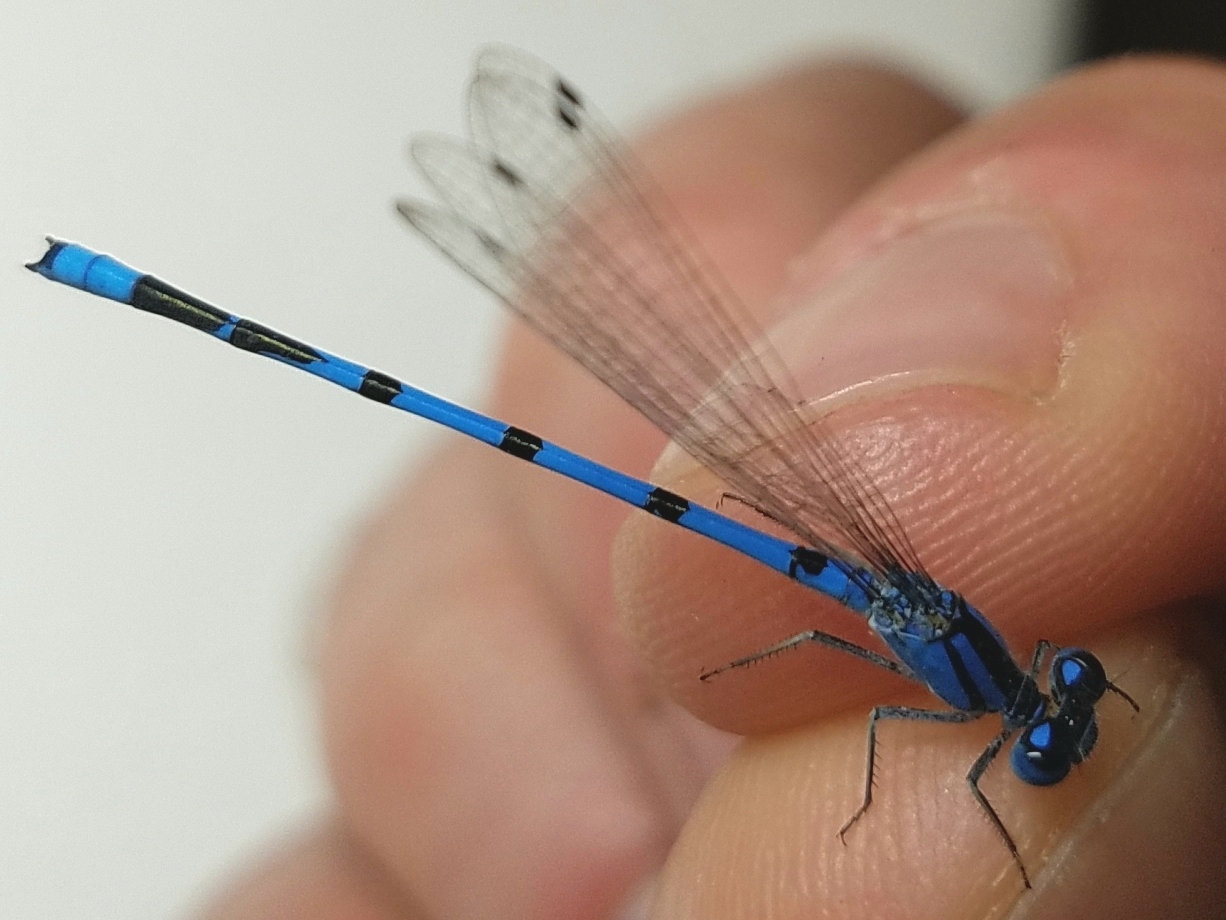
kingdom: Animalia
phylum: Arthropoda
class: Insecta
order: Odonata
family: Coenagrionidae
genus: Enallagma
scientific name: Enallagma civile
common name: Damselfly
